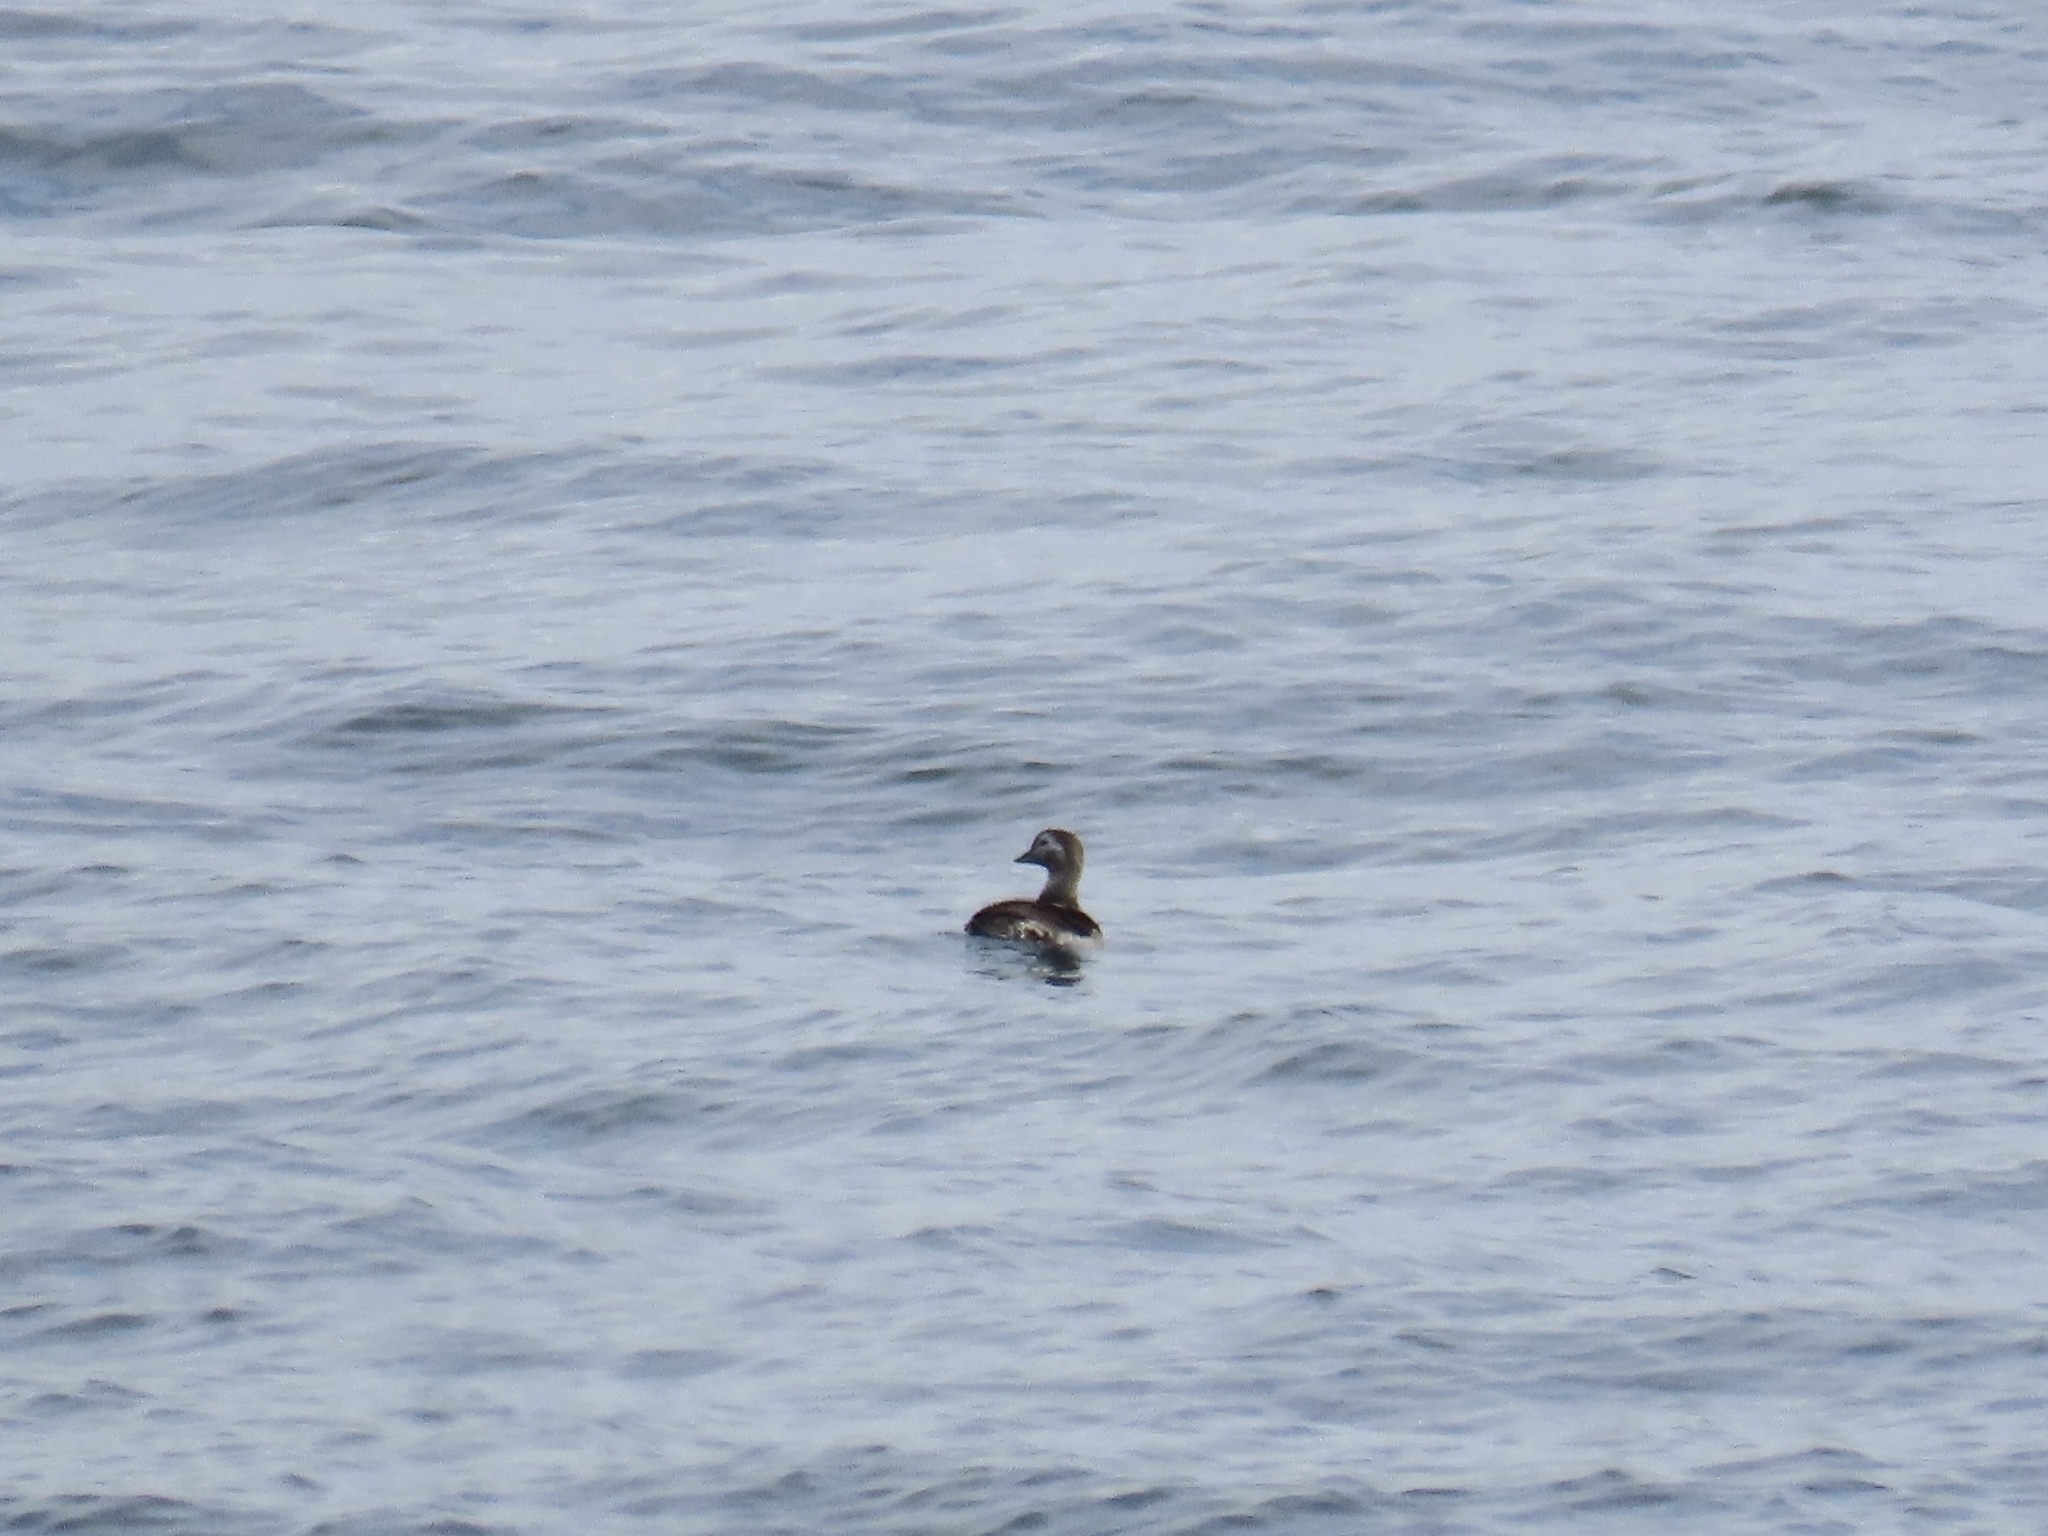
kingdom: Animalia
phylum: Chordata
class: Aves
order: Anseriformes
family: Anatidae
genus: Clangula
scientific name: Clangula hyemalis
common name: Long-tailed duck
